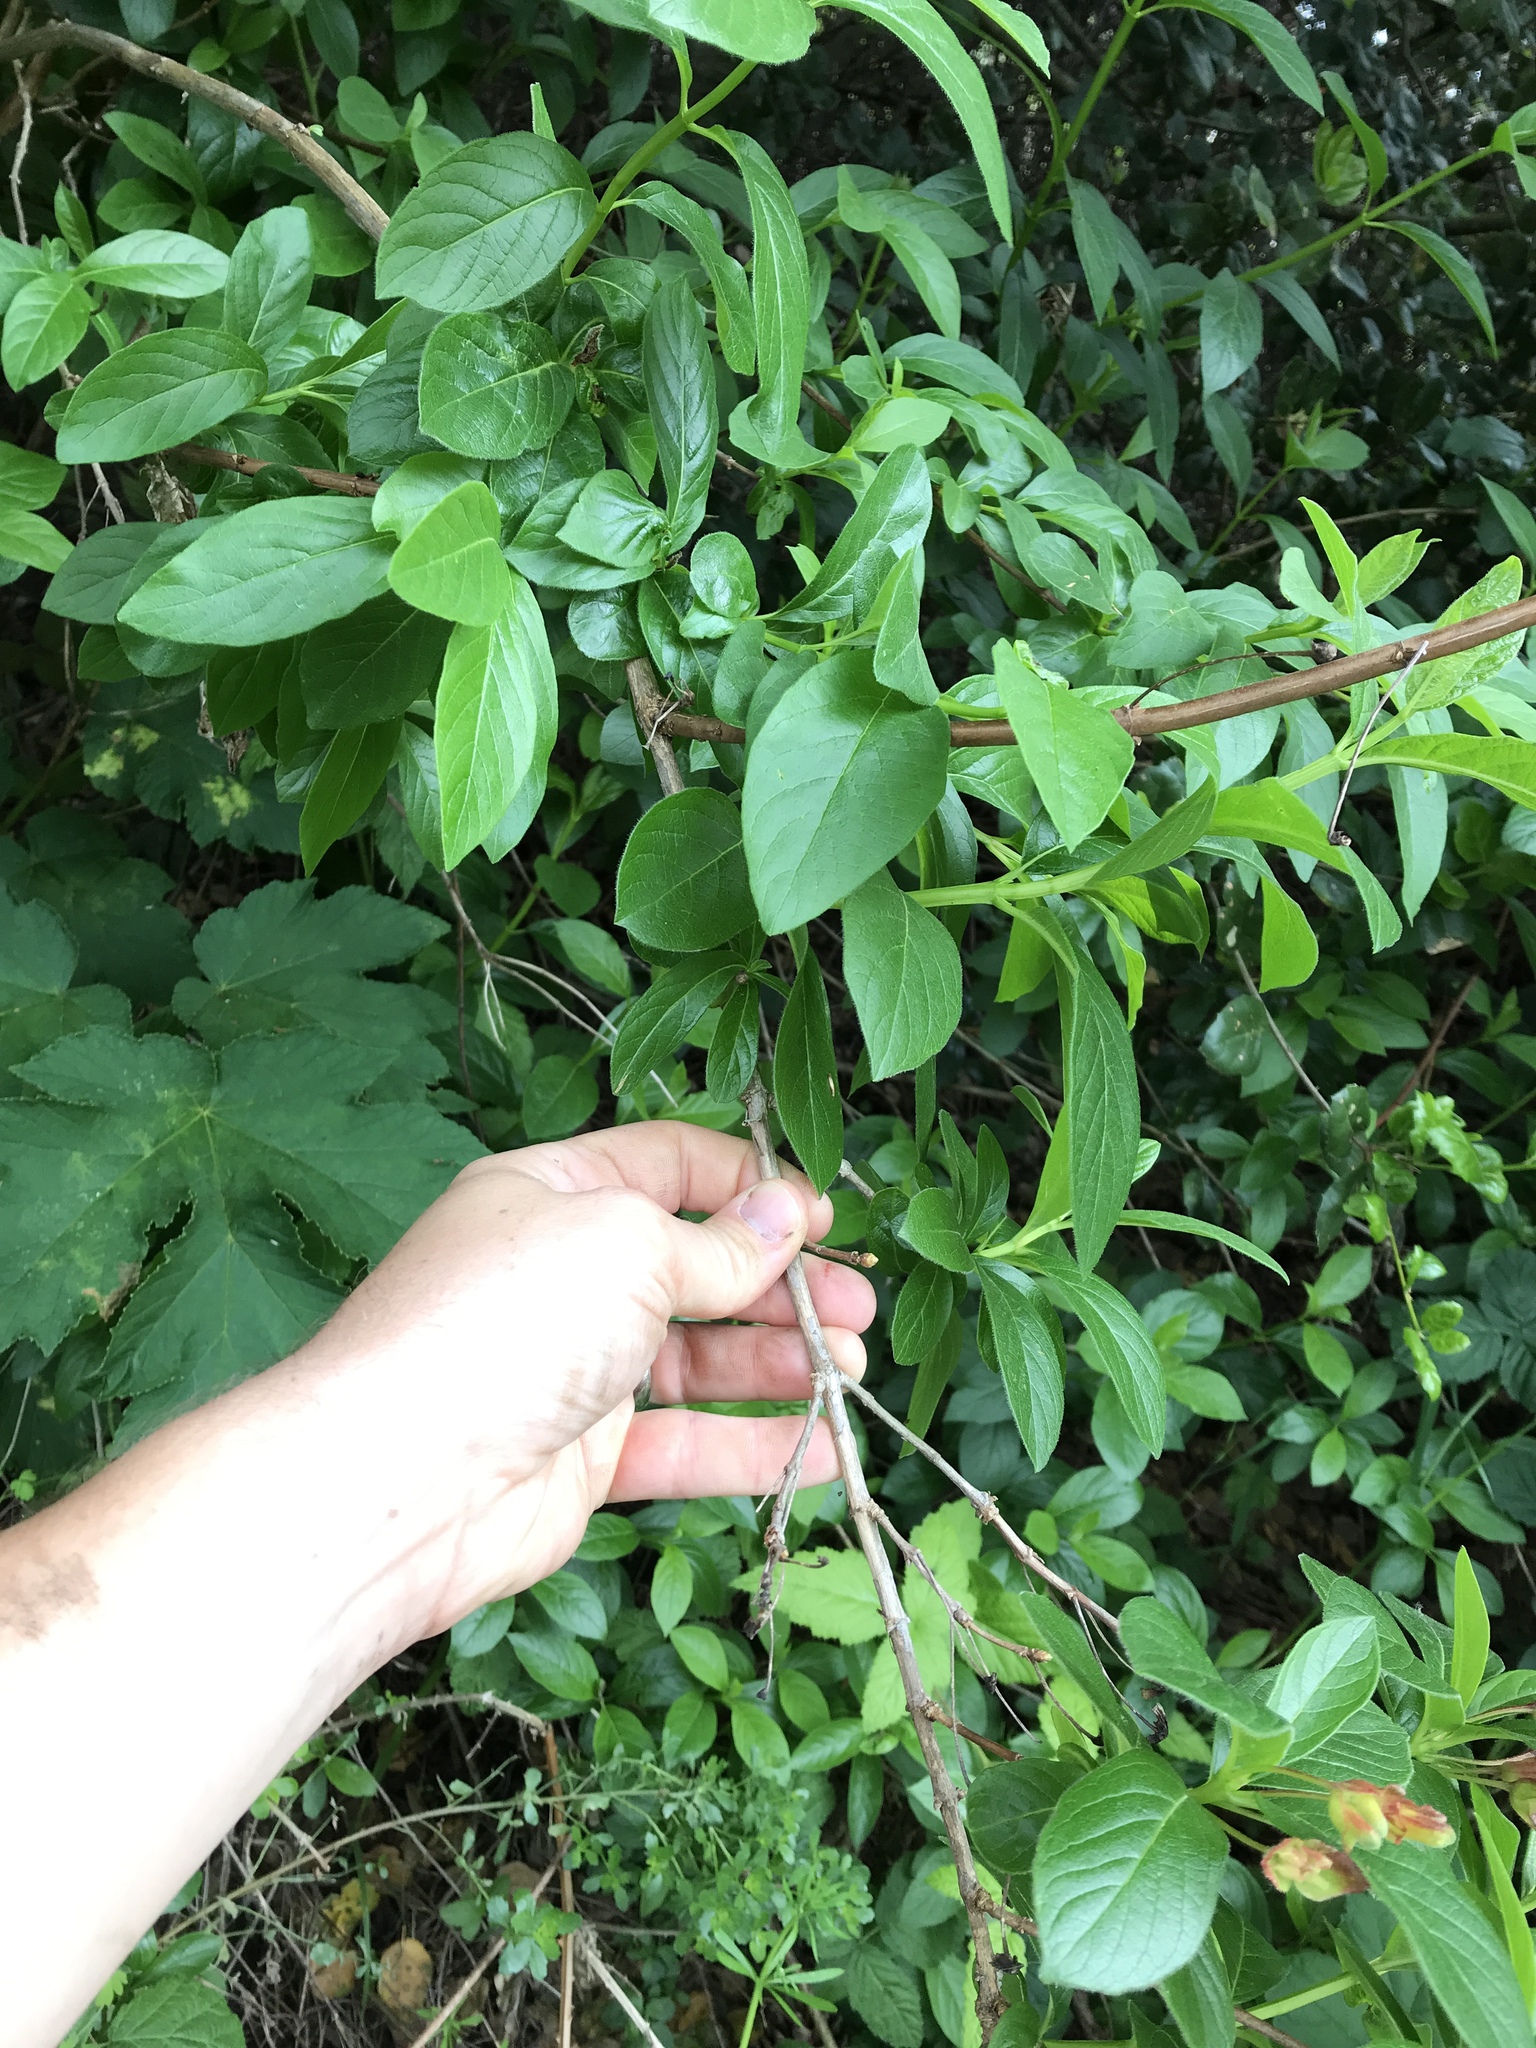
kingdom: Plantae
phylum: Tracheophyta
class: Magnoliopsida
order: Dipsacales
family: Caprifoliaceae
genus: Lonicera
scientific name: Lonicera involucrata
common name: Californian honeysuckle
